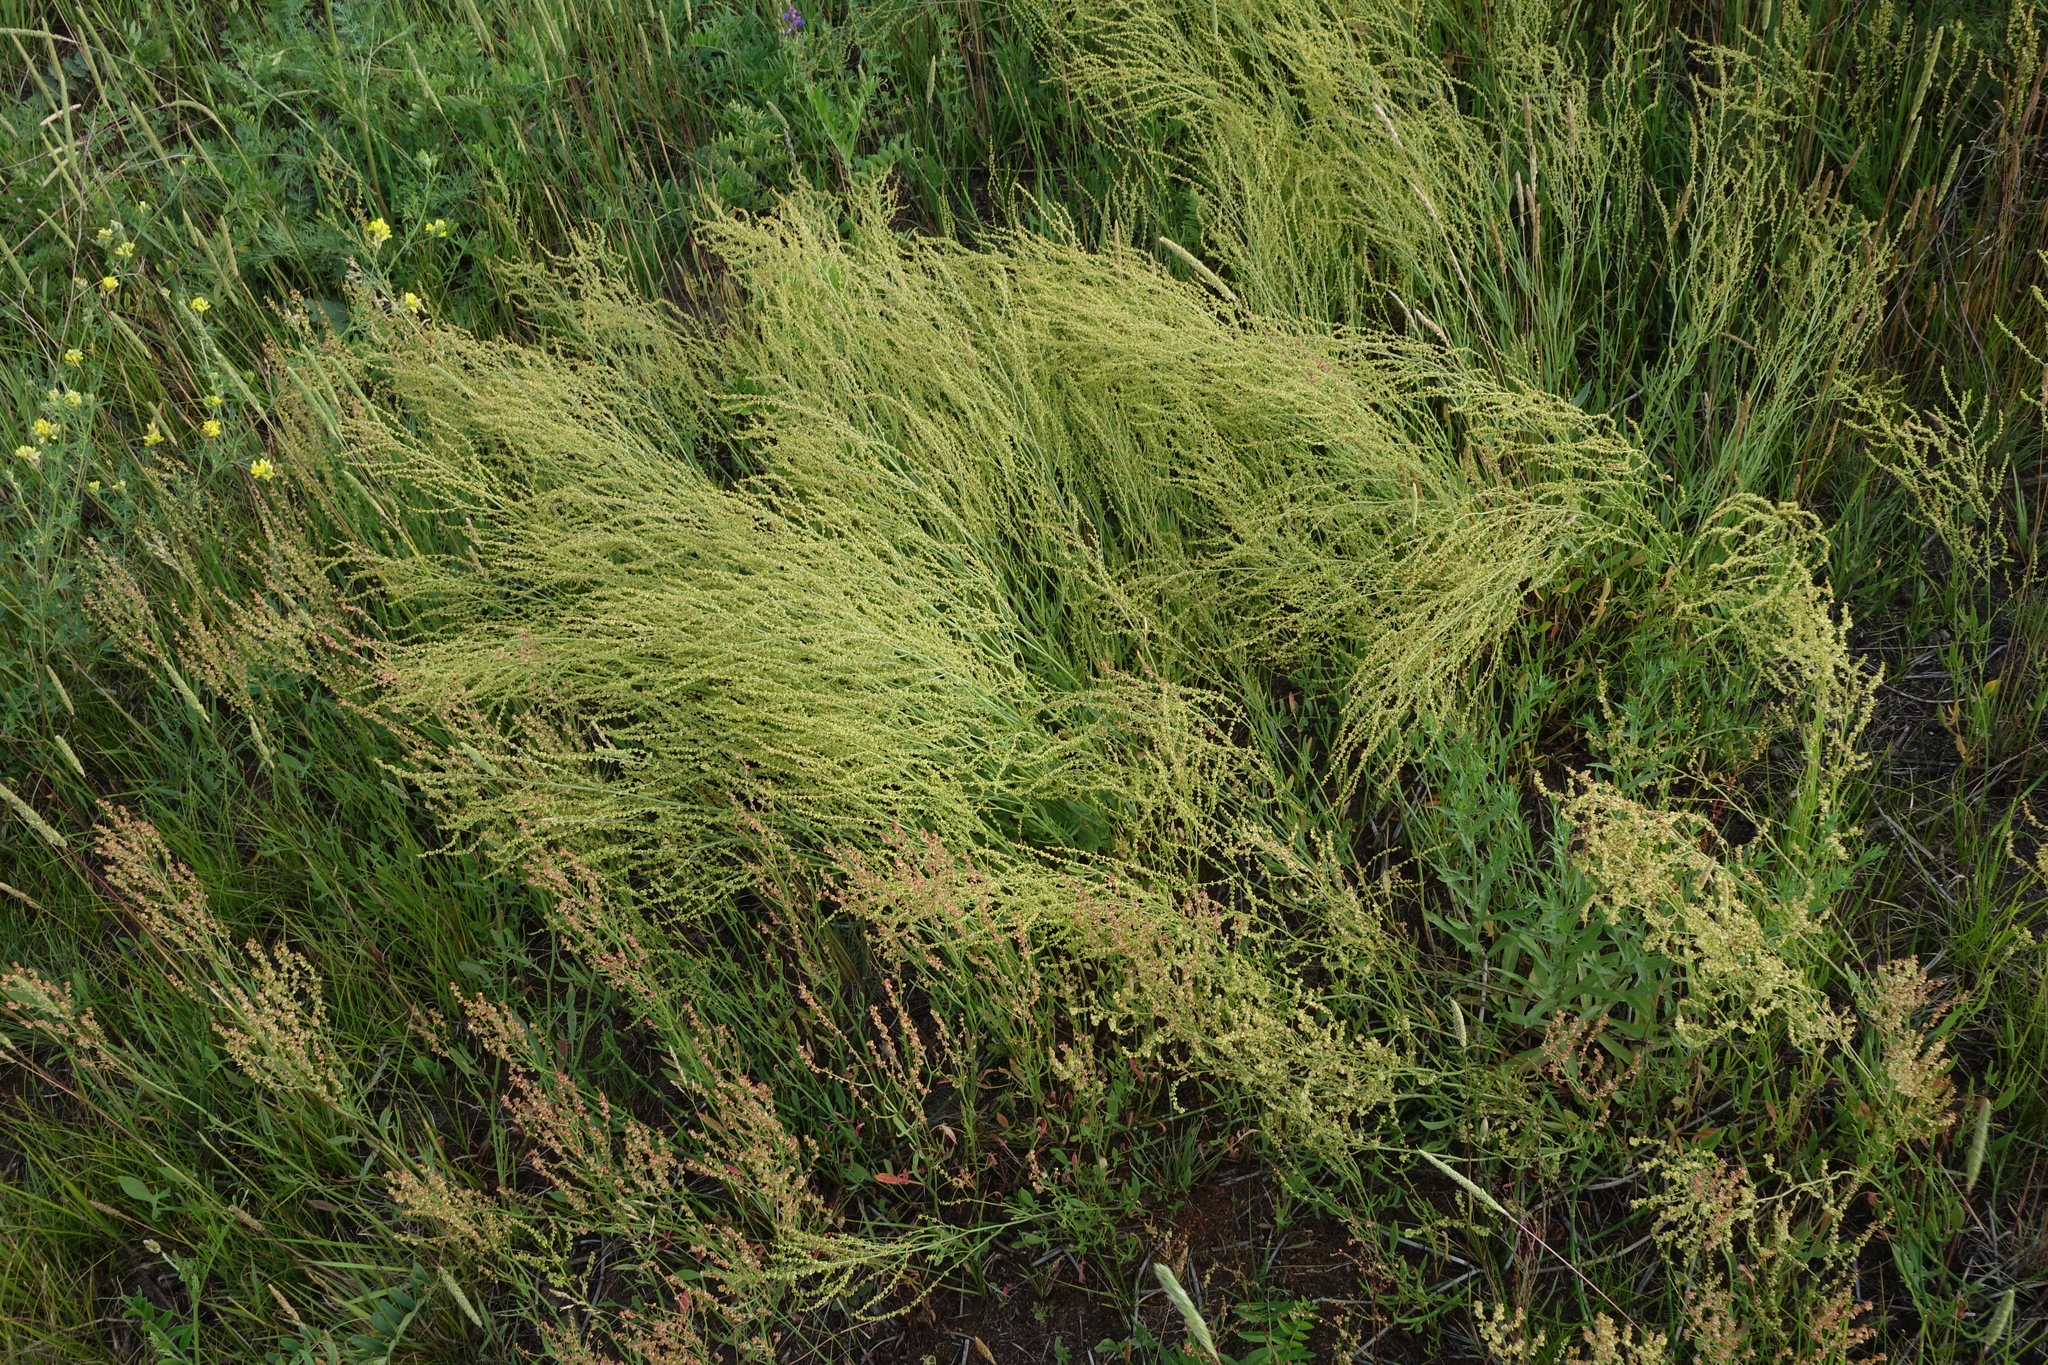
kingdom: Plantae
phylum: Tracheophyta
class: Magnoliopsida
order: Caryophyllales
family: Polygonaceae
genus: Rumex
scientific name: Rumex acetosella
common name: Common sheep sorrel
